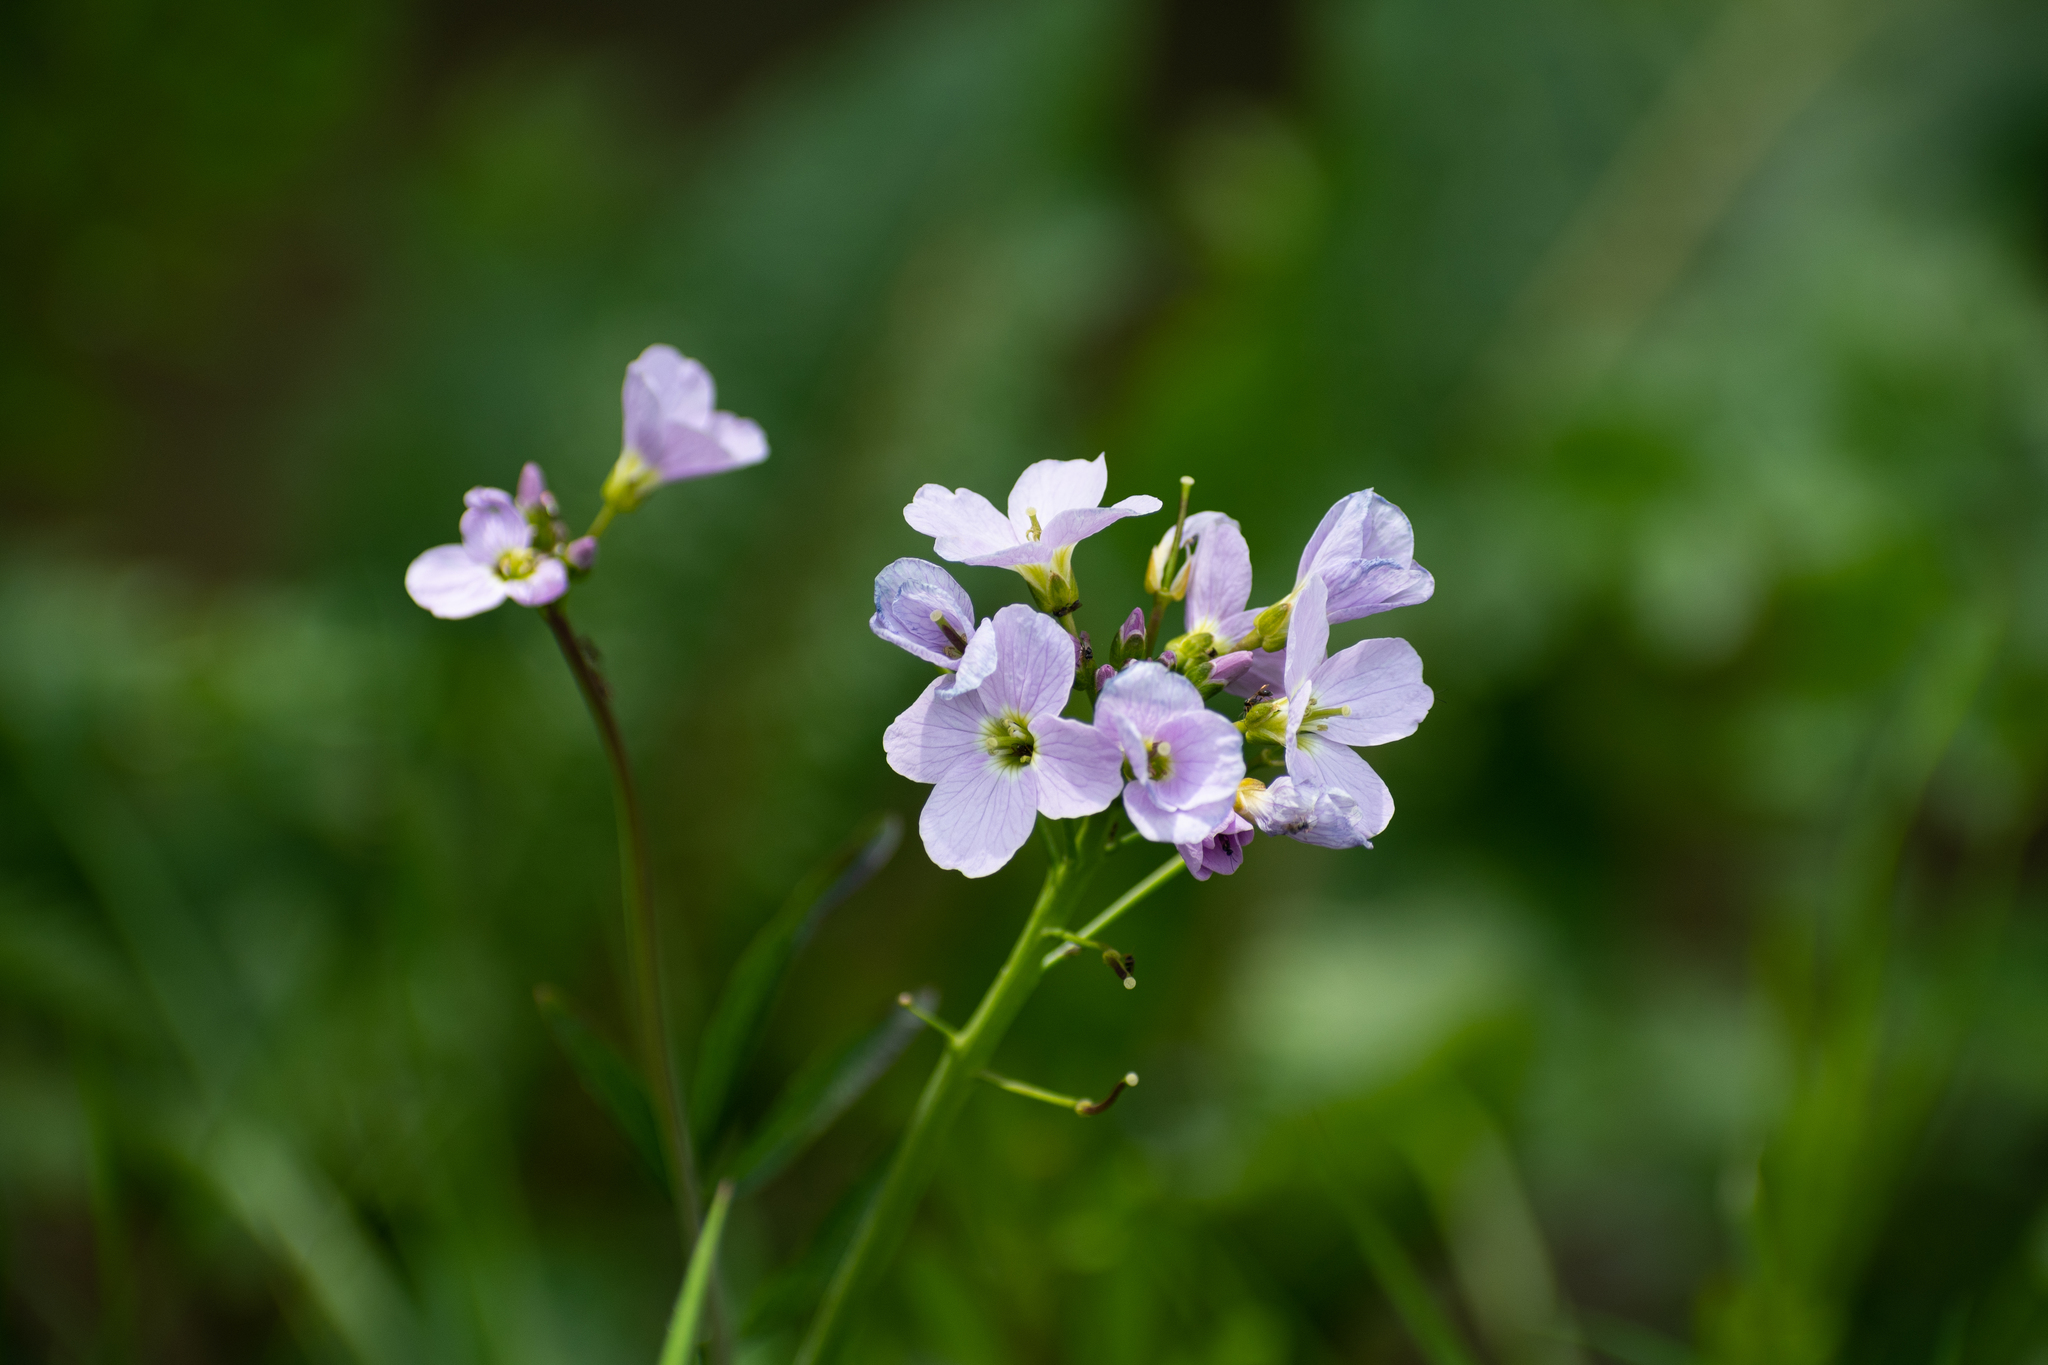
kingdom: Plantae
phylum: Tracheophyta
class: Magnoliopsida
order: Brassicales
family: Brassicaceae
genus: Cardamine
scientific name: Cardamine pratensis
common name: Cuckoo flower
